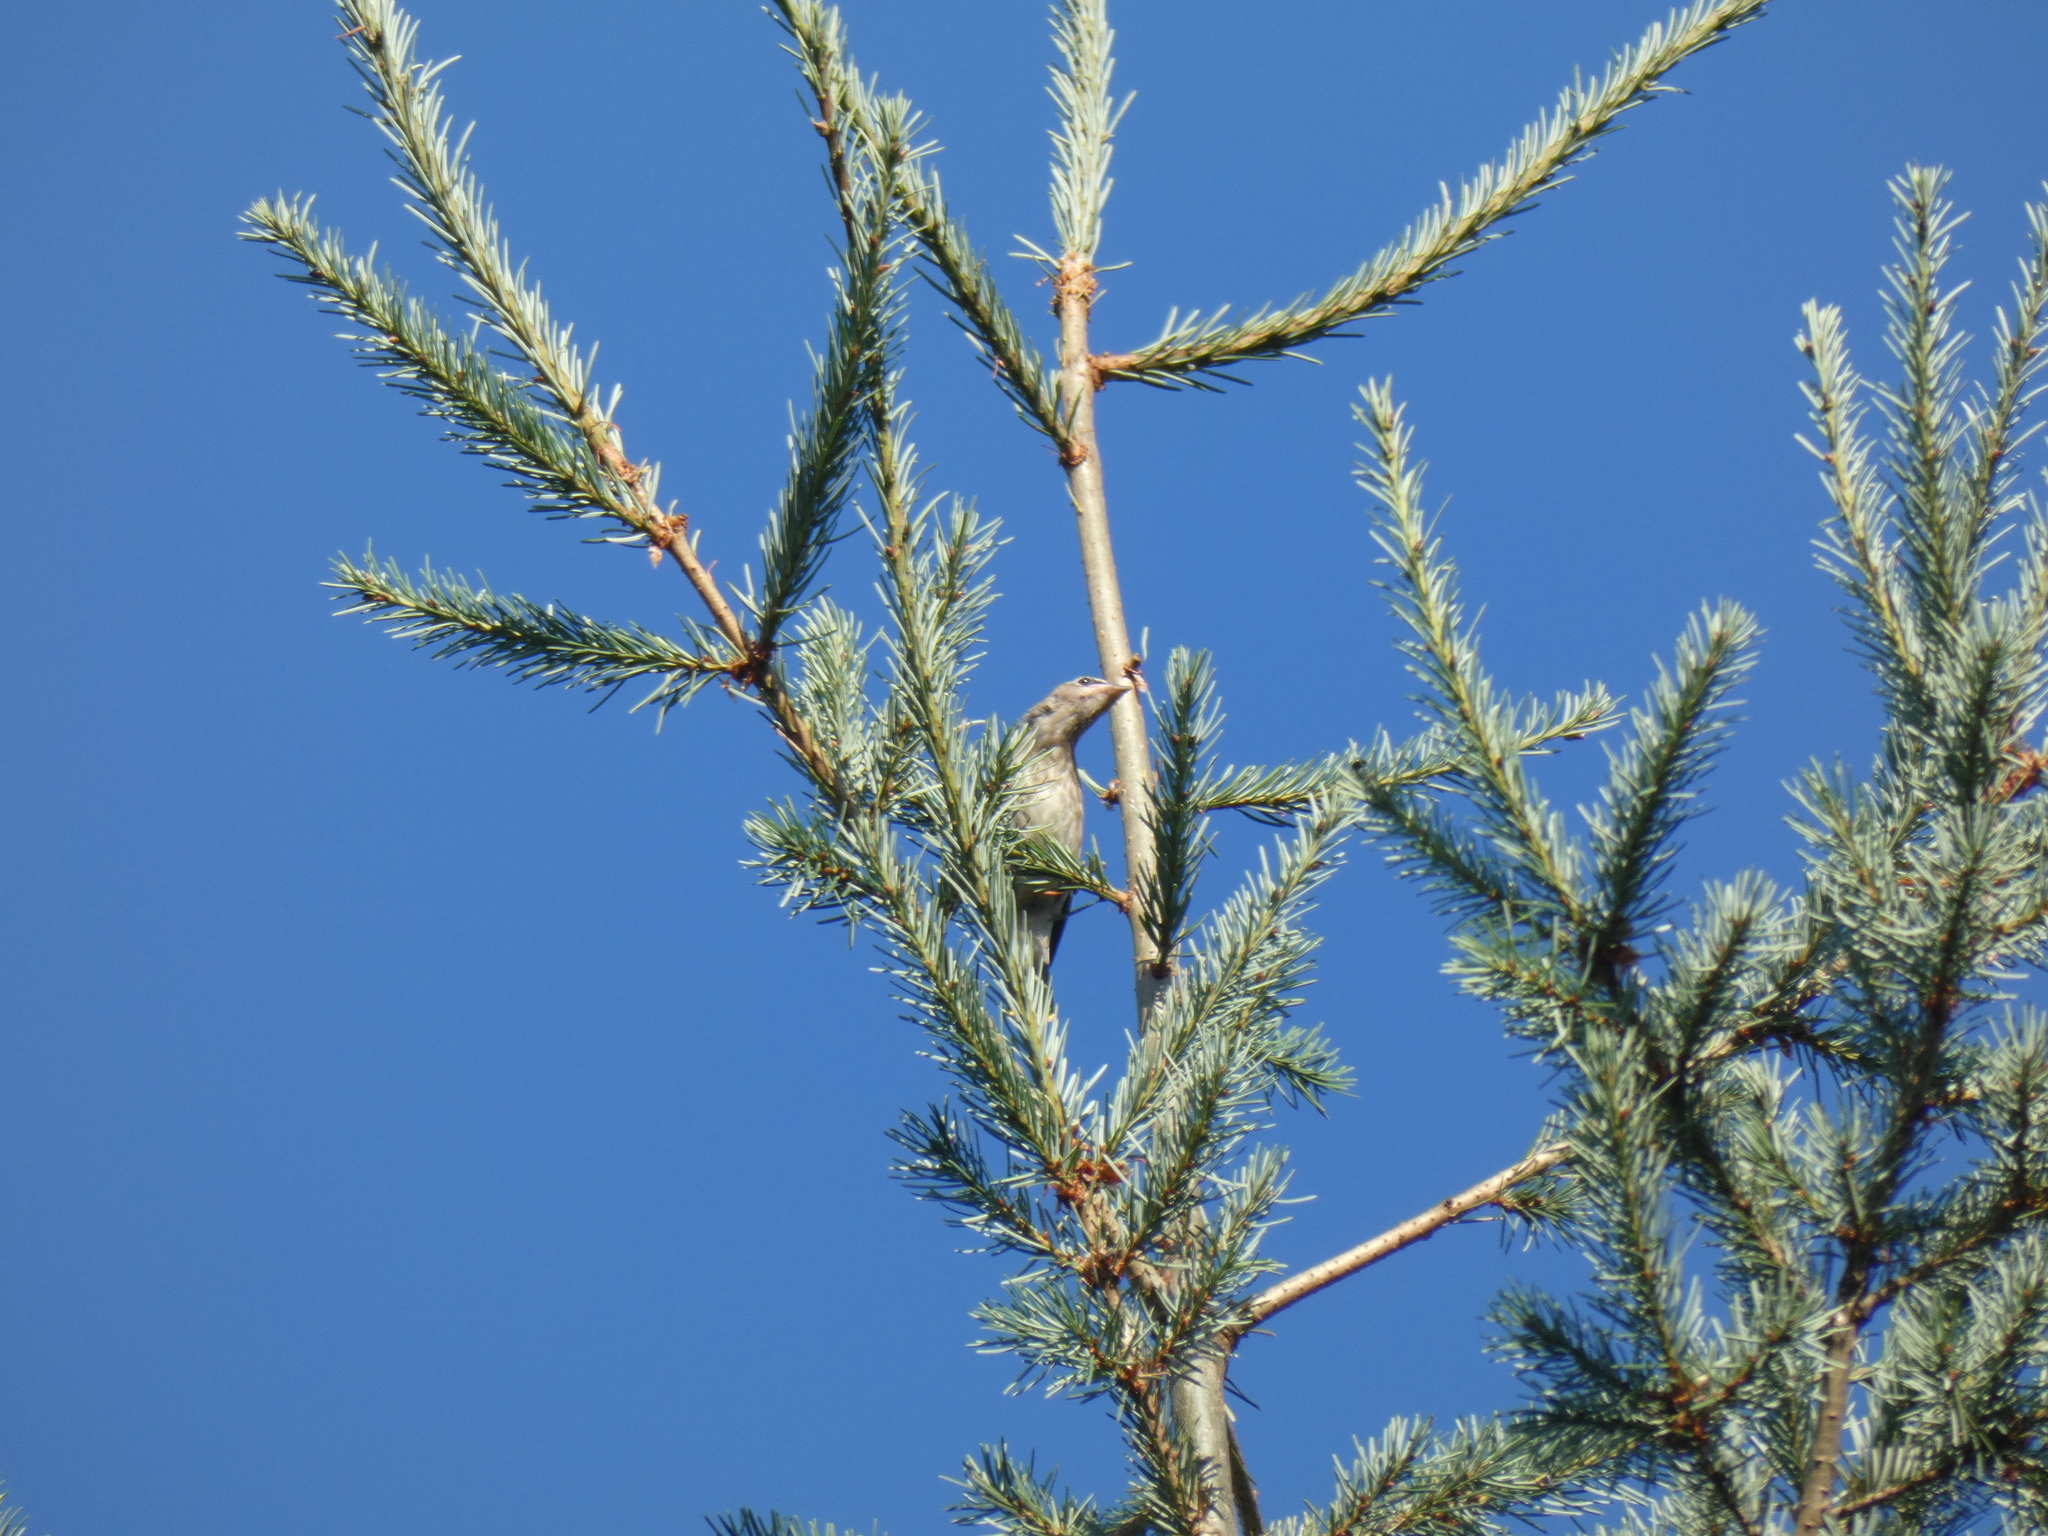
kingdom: Animalia
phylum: Chordata
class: Aves
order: Passeriformes
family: Bombycillidae
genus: Bombycilla
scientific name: Bombycilla cedrorum
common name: Cedar waxwing
